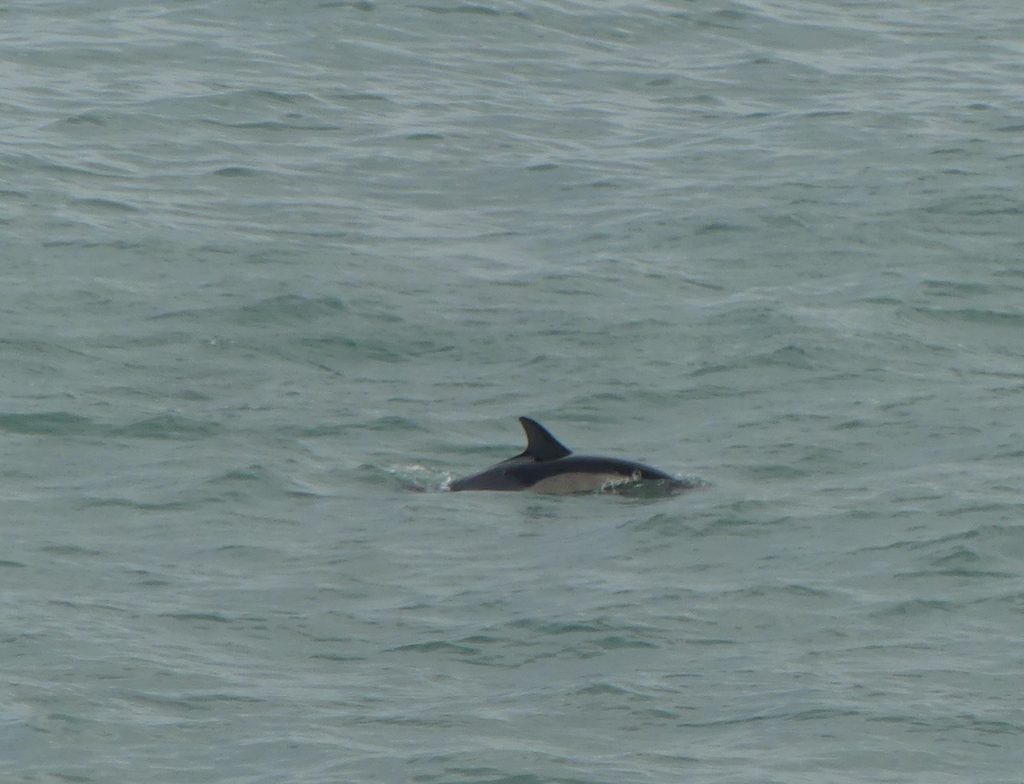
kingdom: Animalia
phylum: Chordata
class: Mammalia
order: Cetacea
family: Delphinidae
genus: Delphinus
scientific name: Delphinus delphis
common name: Common dolphin
